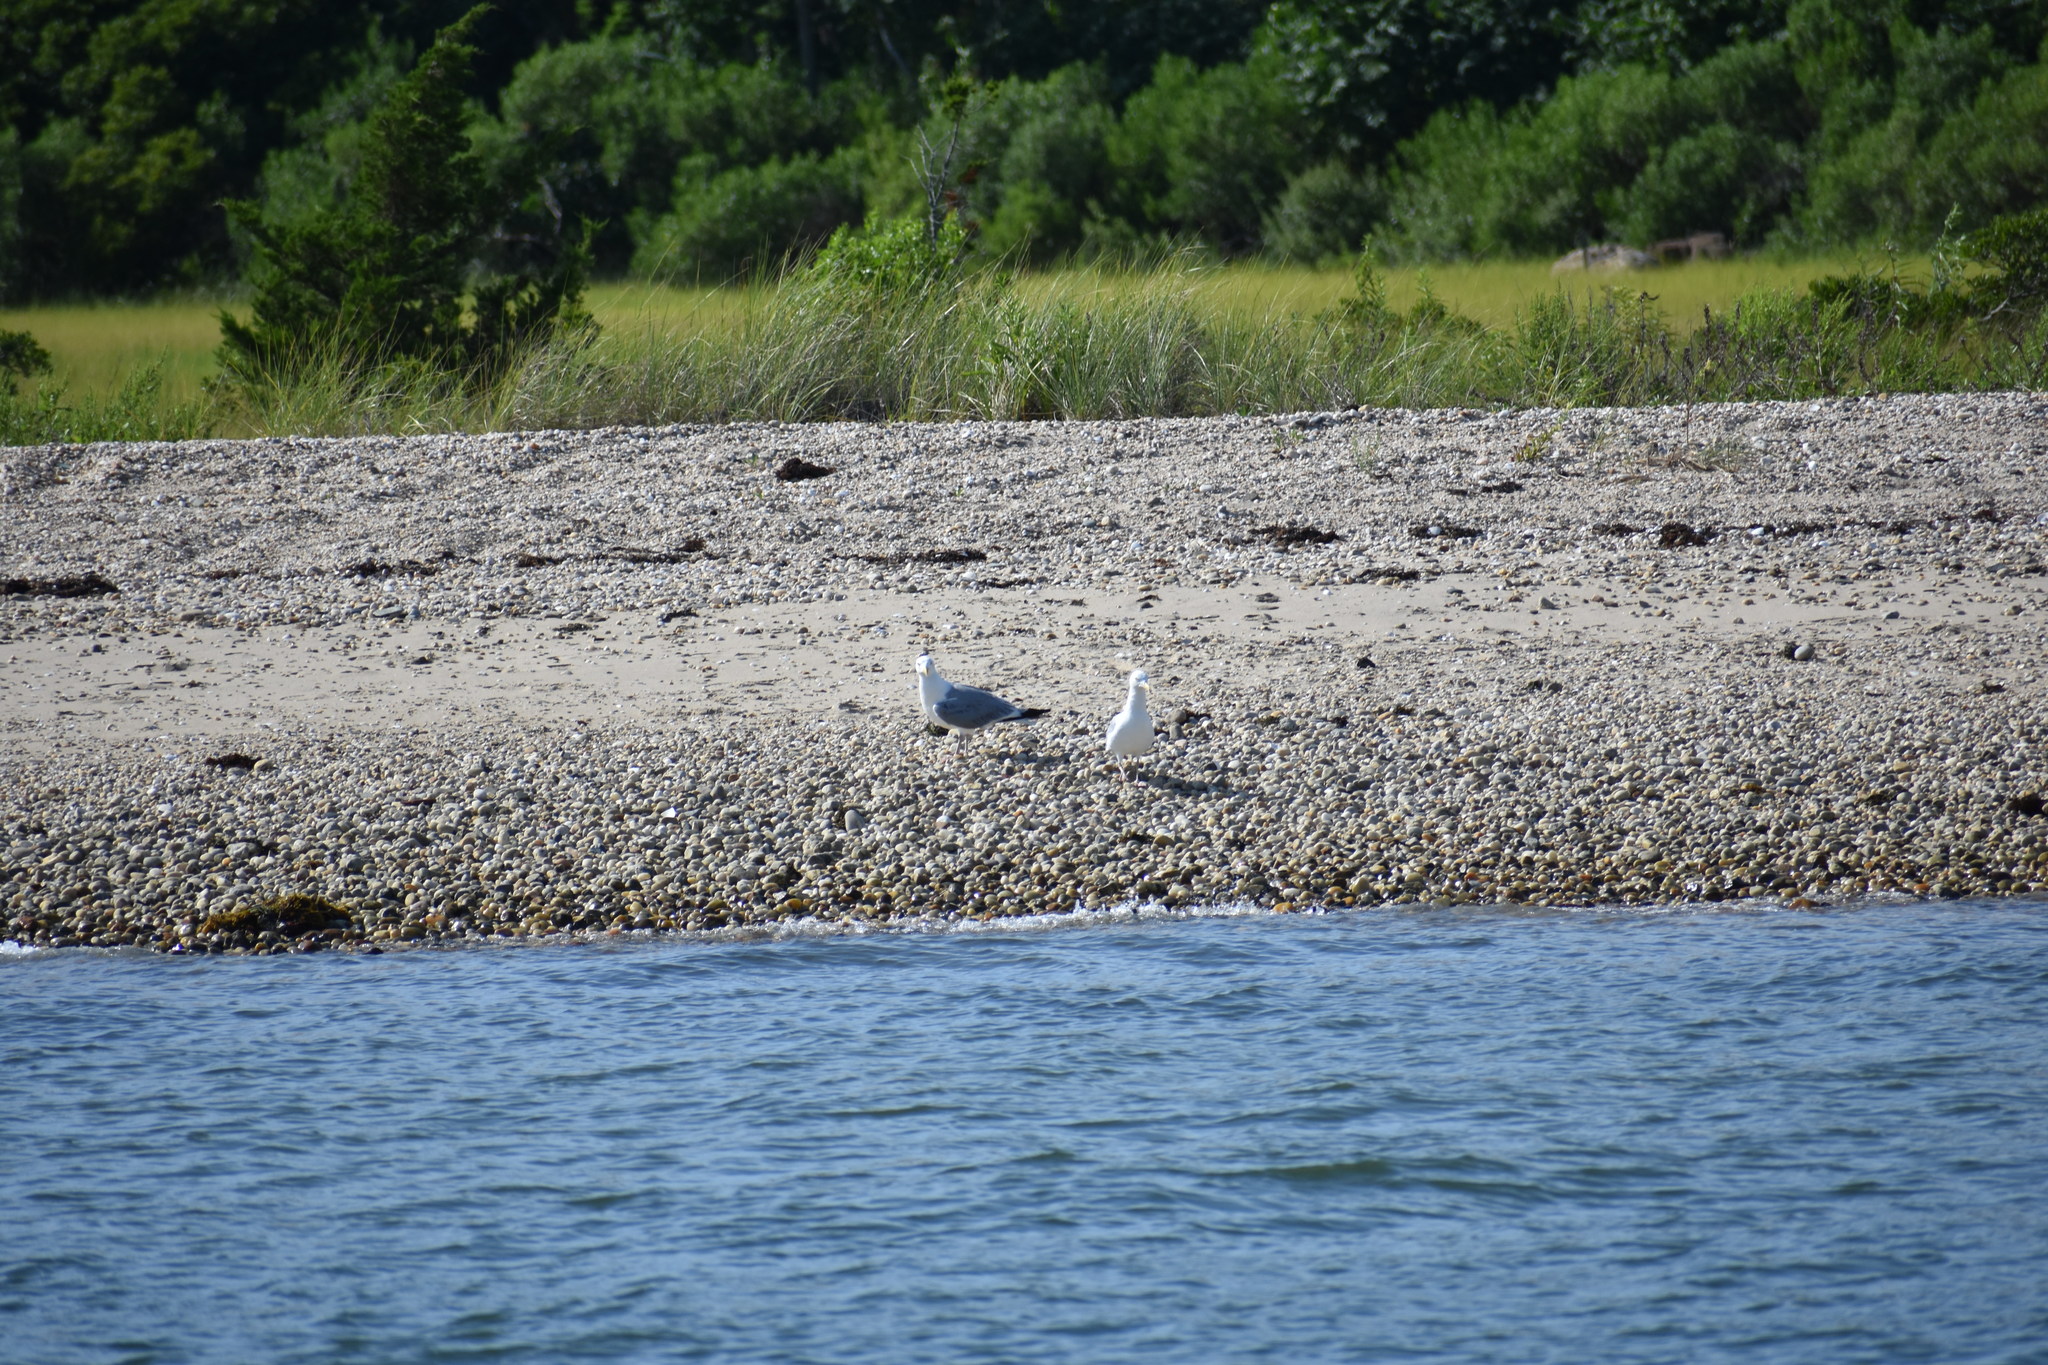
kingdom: Animalia
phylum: Chordata
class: Aves
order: Charadriiformes
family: Laridae
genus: Larus
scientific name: Larus argentatus
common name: Herring gull
